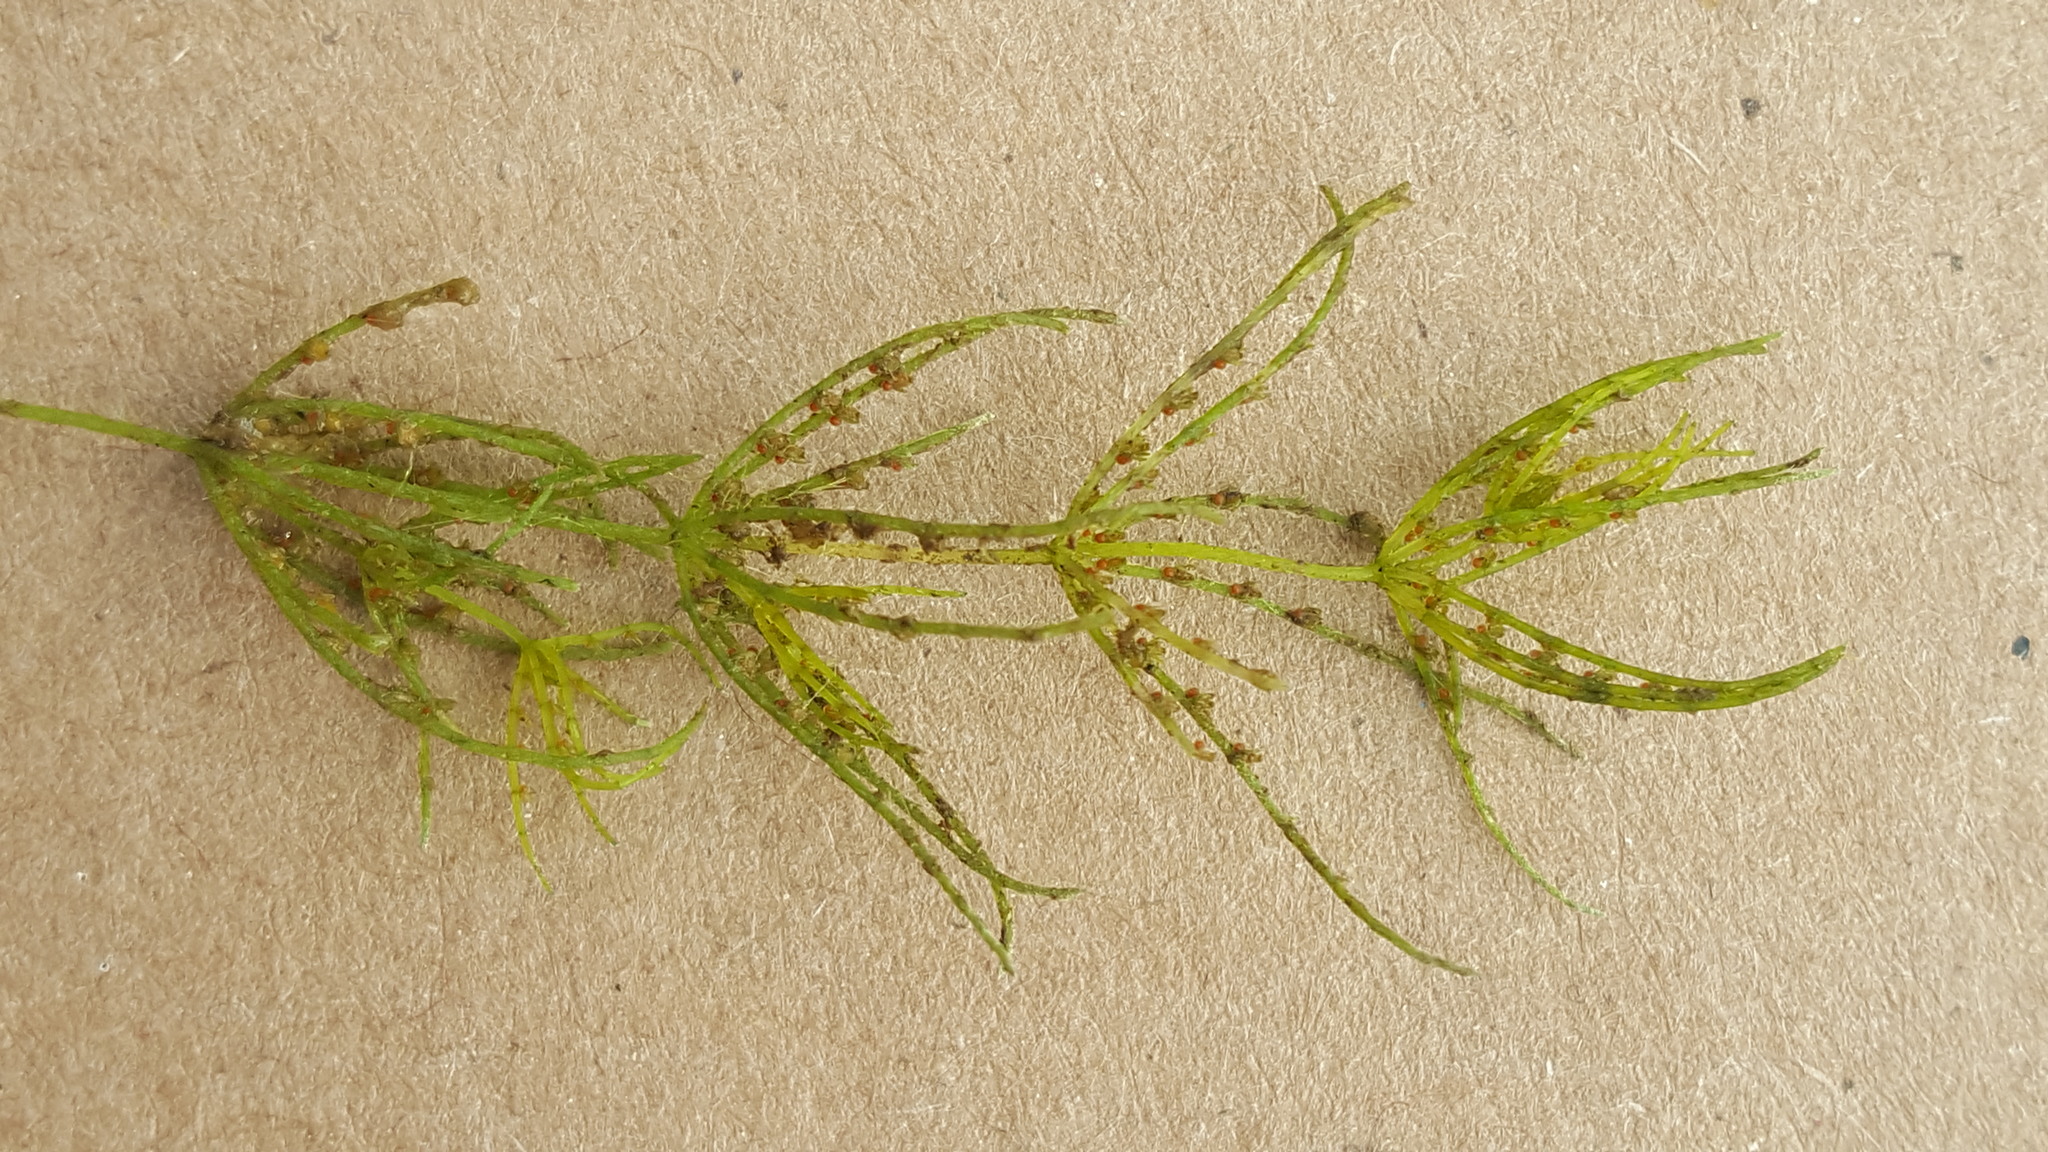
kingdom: Plantae
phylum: Charophyta
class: Charophyceae
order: Charales
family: Characeae
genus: Chara
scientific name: Chara globularis
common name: Fragile stonewort
